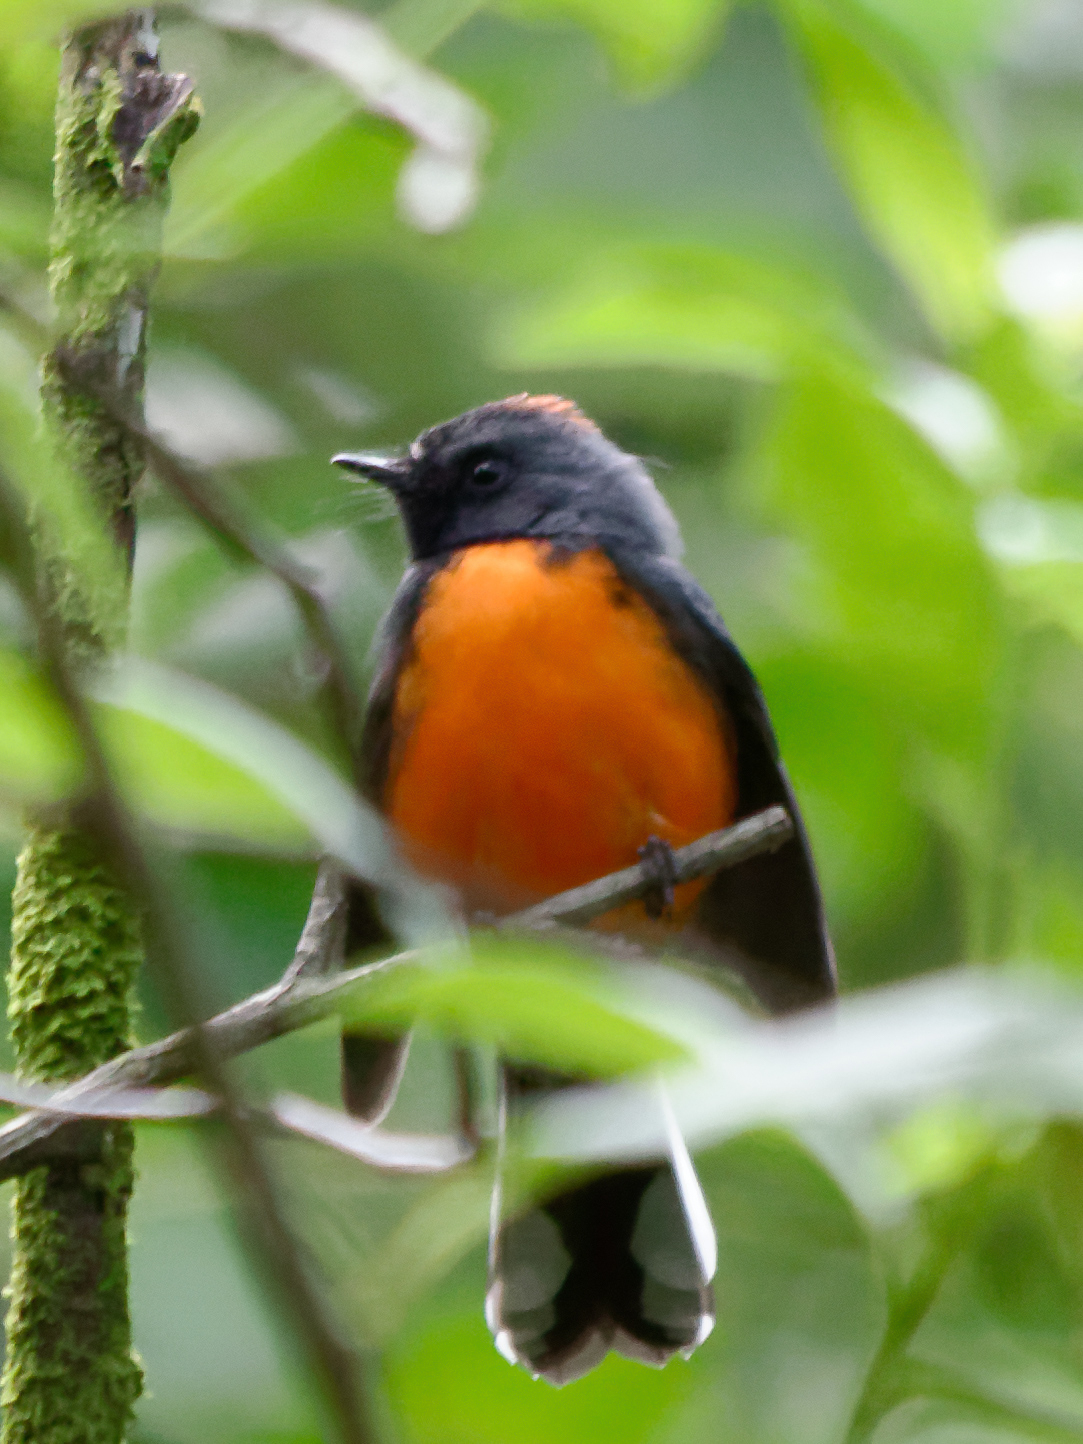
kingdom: Animalia
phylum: Chordata
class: Aves
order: Passeriformes
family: Parulidae
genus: Myioborus
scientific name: Myioborus miniatus
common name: Slate-throated redstart
